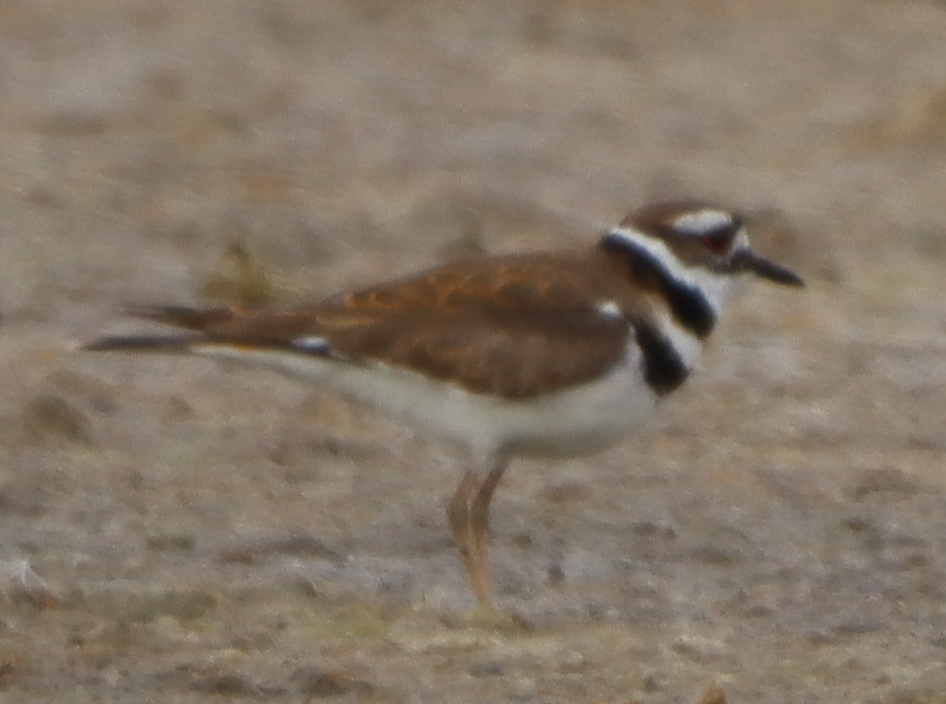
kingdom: Animalia
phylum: Chordata
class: Aves
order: Charadriiformes
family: Charadriidae
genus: Charadrius
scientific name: Charadrius vociferus
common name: Killdeer
